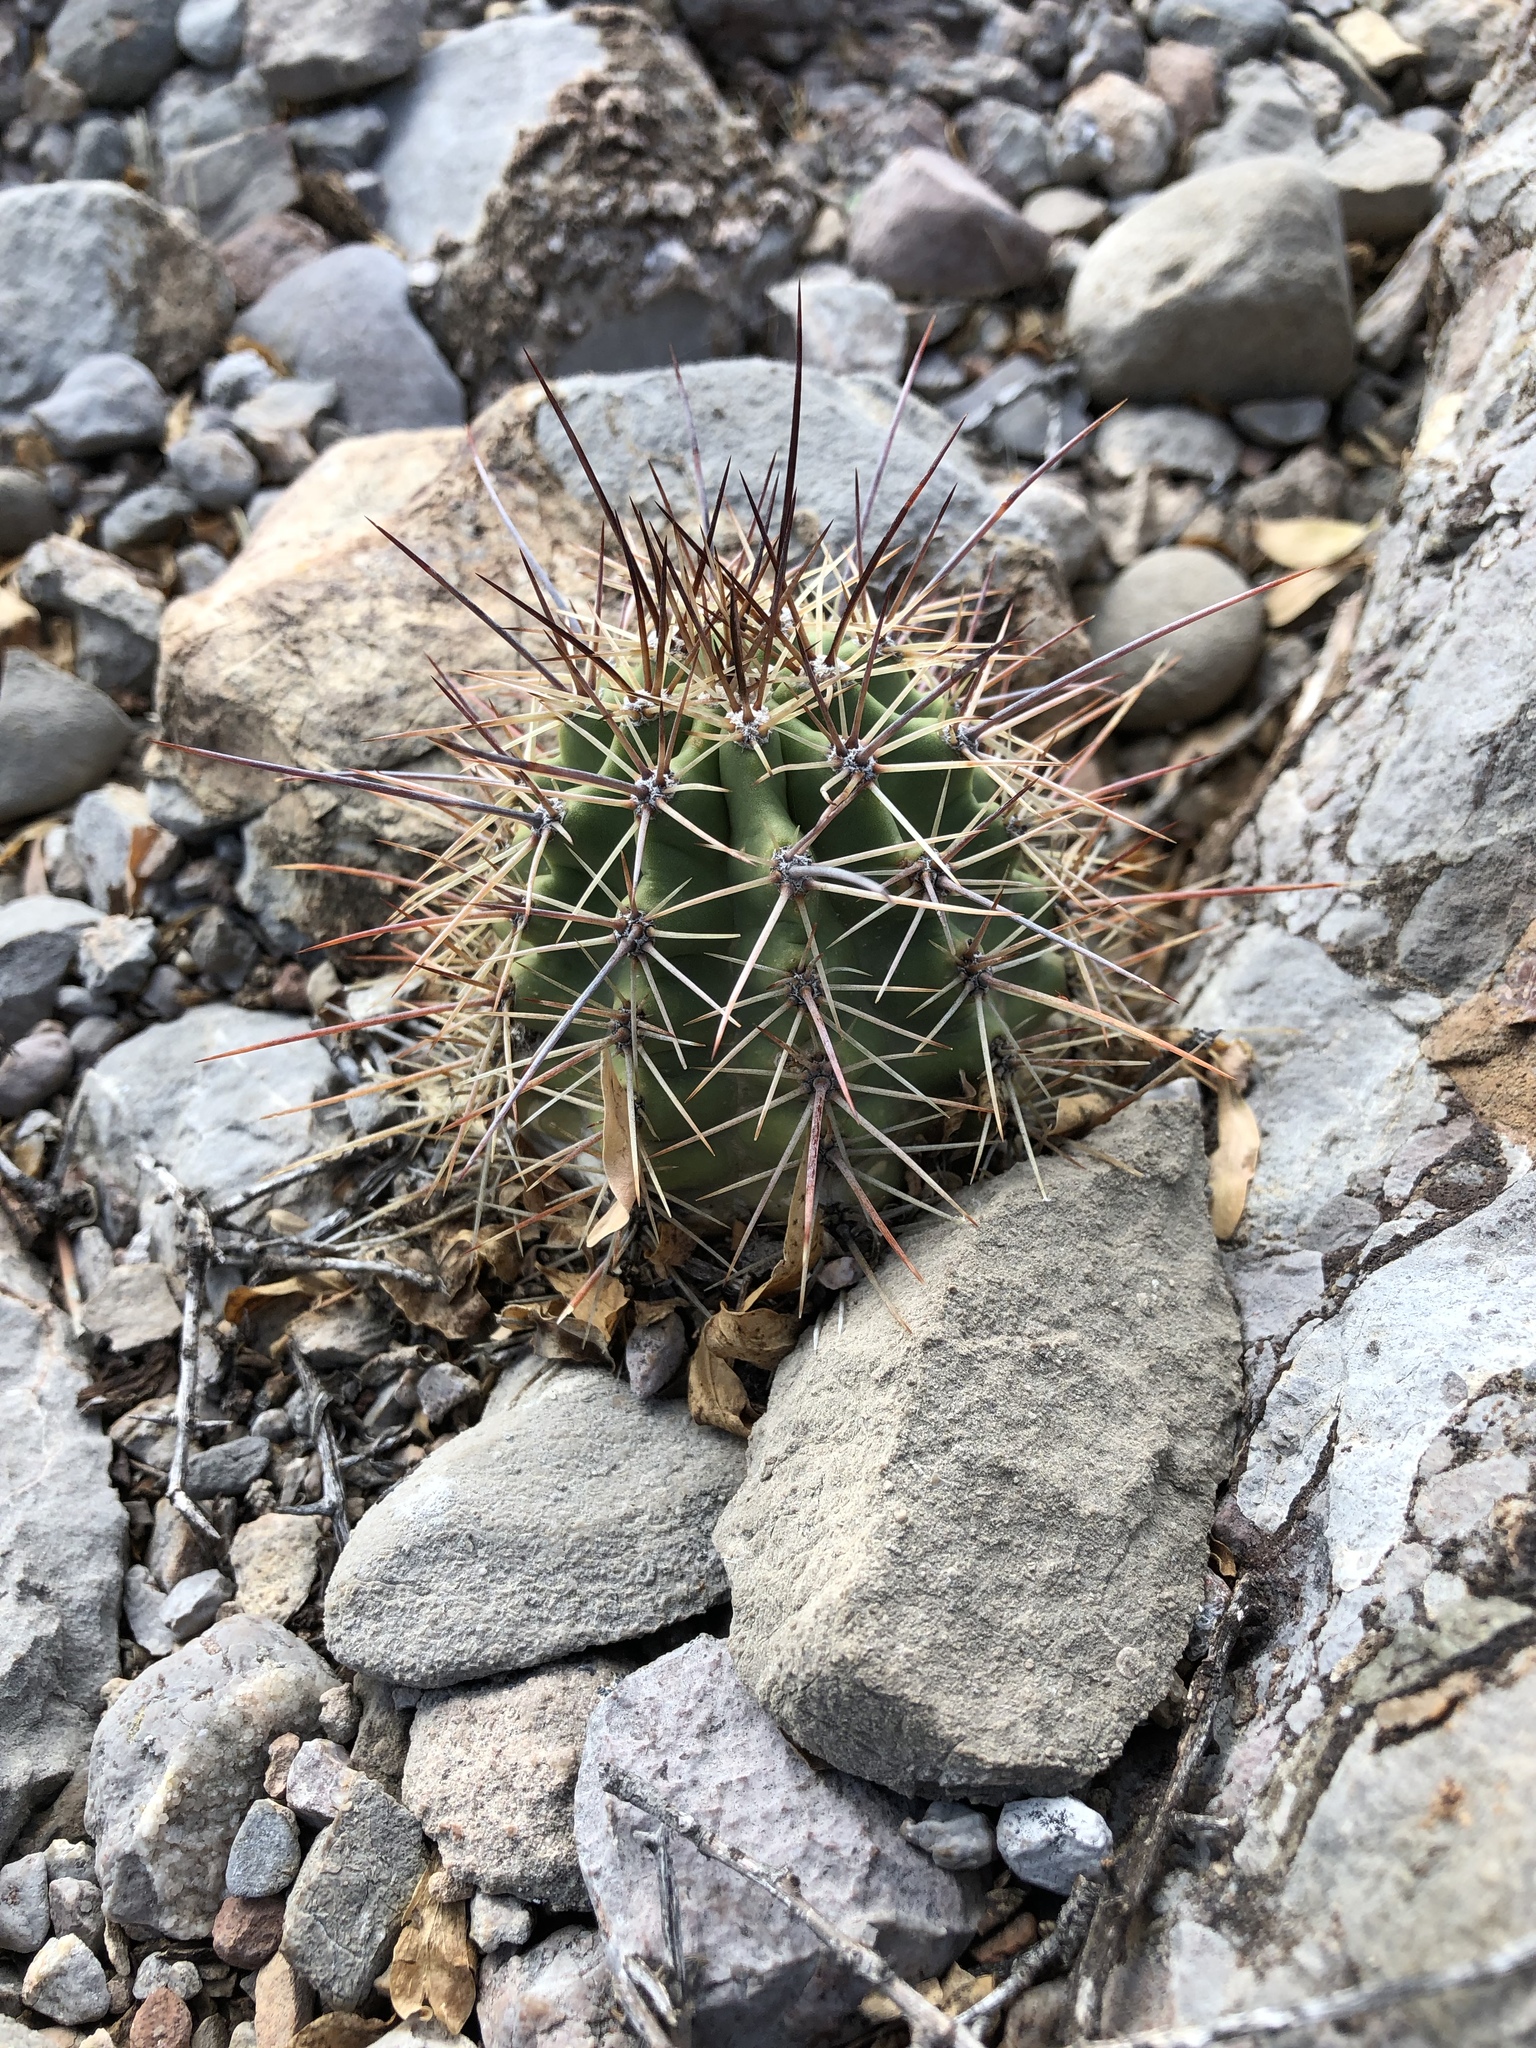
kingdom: Plantae
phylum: Tracheophyta
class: Magnoliopsida
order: Caryophyllales
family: Cactaceae
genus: Echinocereus
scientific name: Echinocereus coccineus
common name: Scarlet hedgehog cactus
